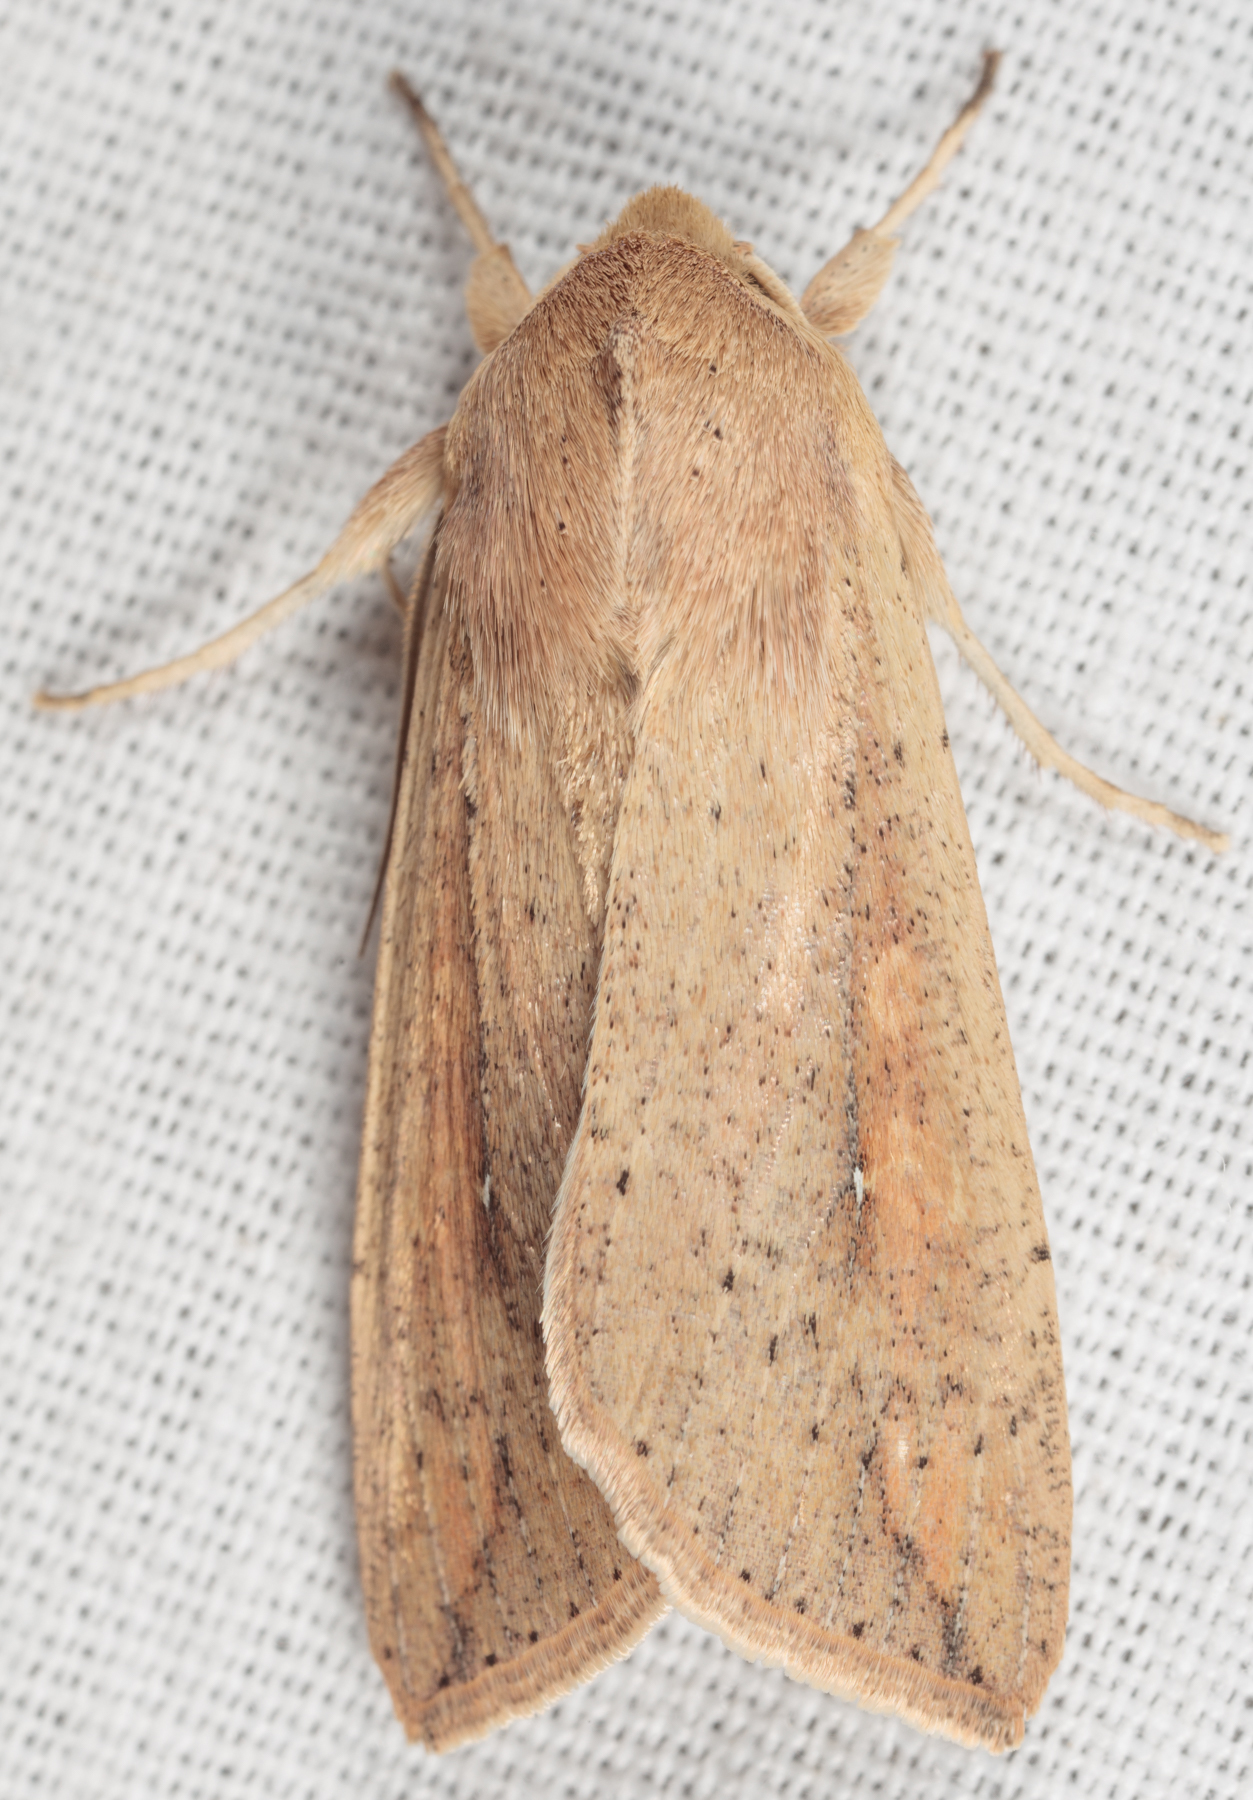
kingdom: Animalia
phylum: Arthropoda
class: Insecta
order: Lepidoptera
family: Noctuidae
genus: Mythimna
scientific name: Mythimna unipuncta
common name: White-speck
